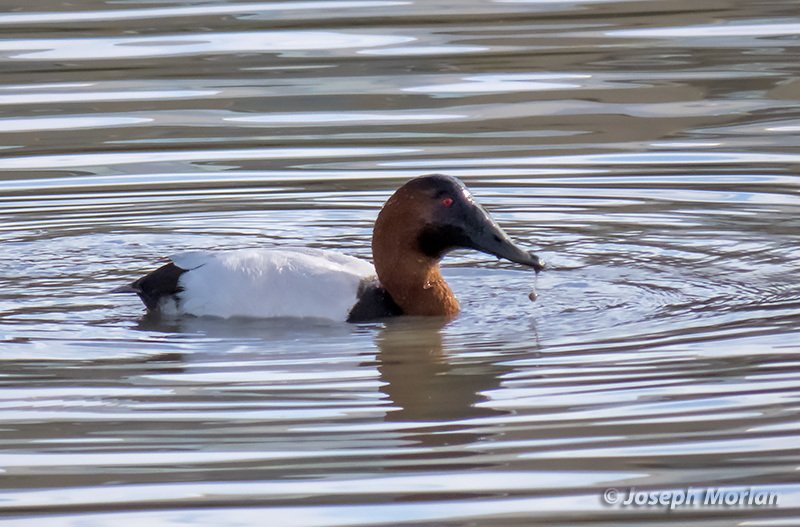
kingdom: Animalia
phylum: Chordata
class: Aves
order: Anseriformes
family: Anatidae
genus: Aythya
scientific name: Aythya valisineria
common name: Canvasback
